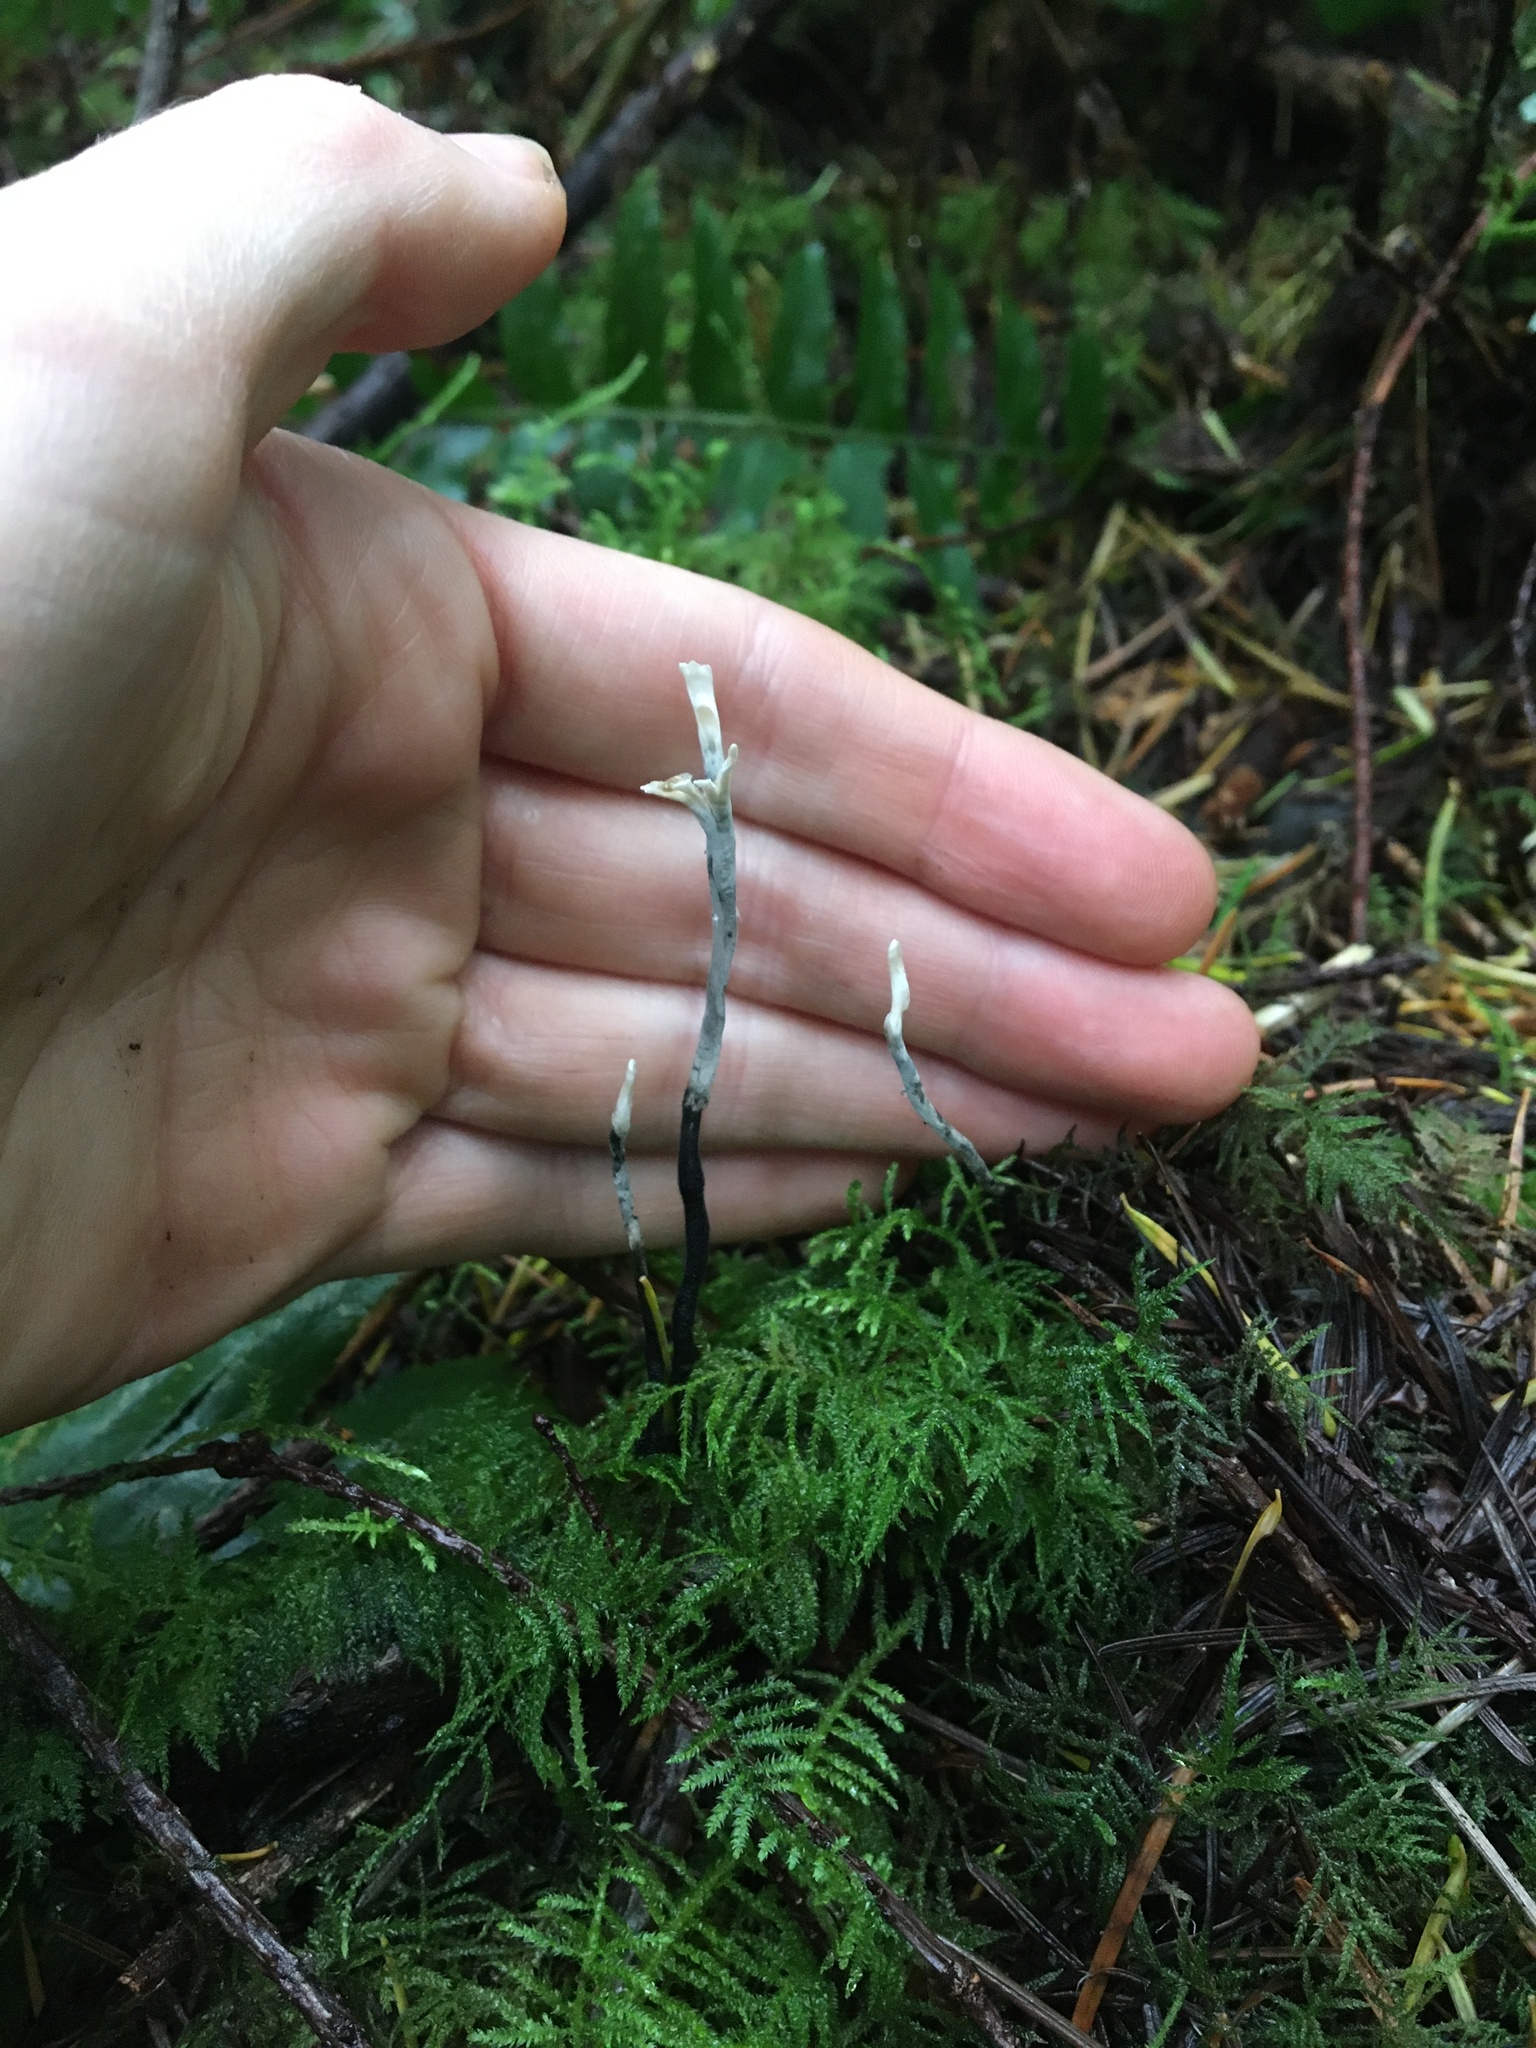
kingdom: Fungi
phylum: Ascomycota
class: Sordariomycetes
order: Xylariales
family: Xylariaceae
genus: Xylaria
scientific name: Xylaria hypoxylon
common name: Candle-snuff fungus
